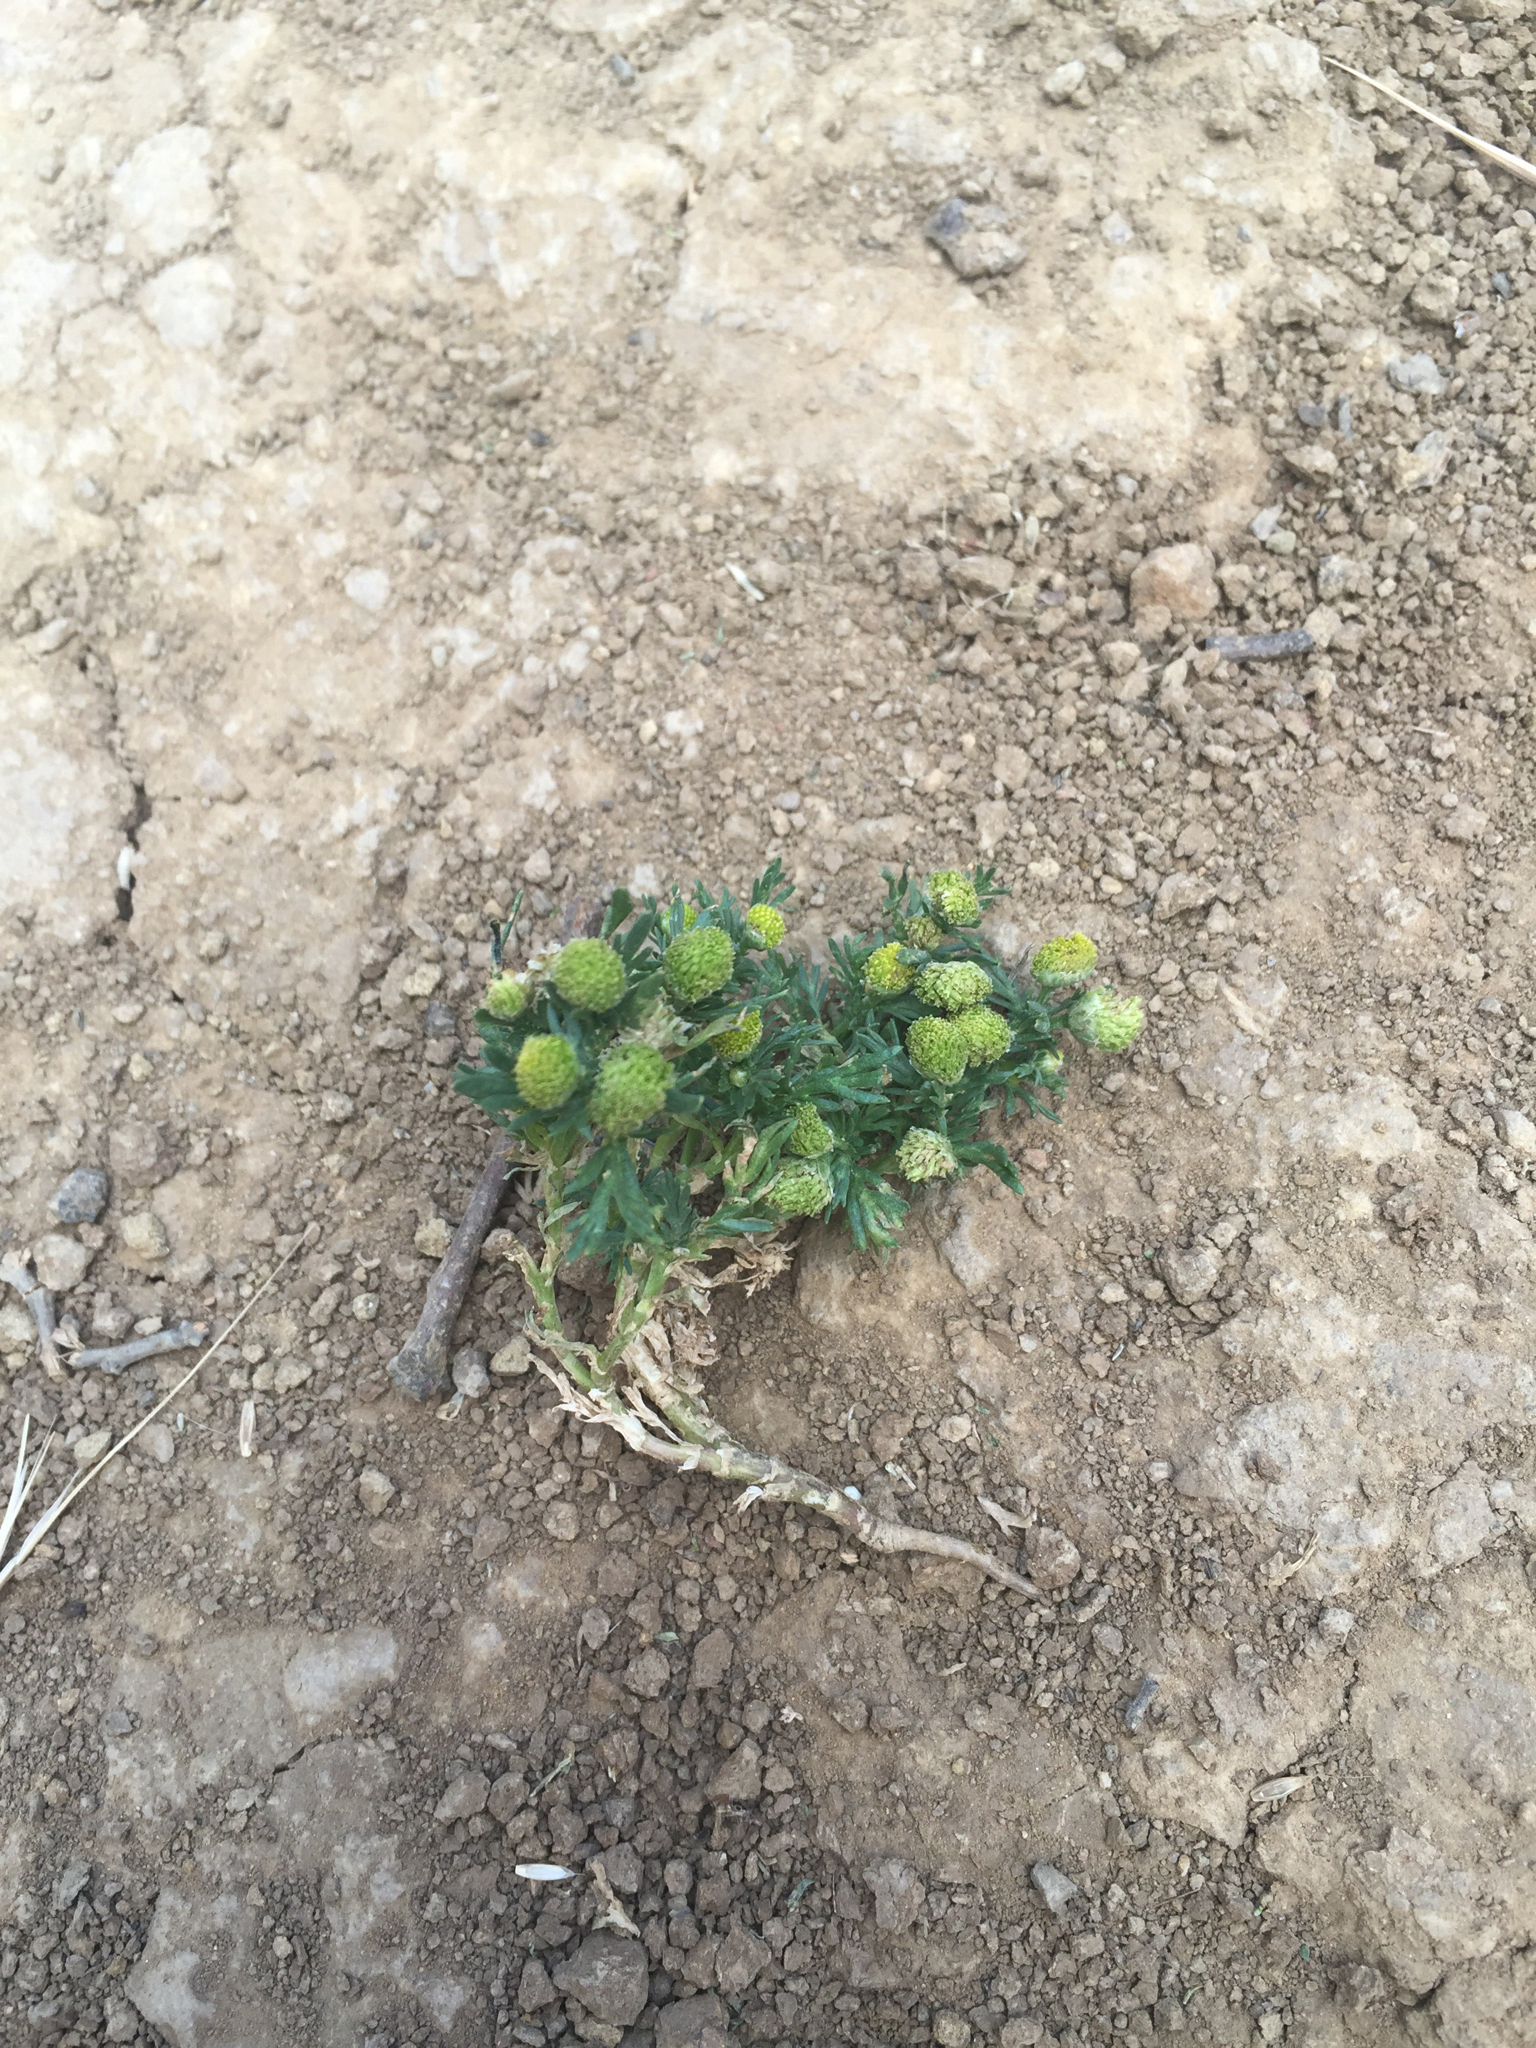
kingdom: Plantae
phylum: Tracheophyta
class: Magnoliopsida
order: Asterales
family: Asteraceae
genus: Matricaria
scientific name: Matricaria discoidea
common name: Disc mayweed
